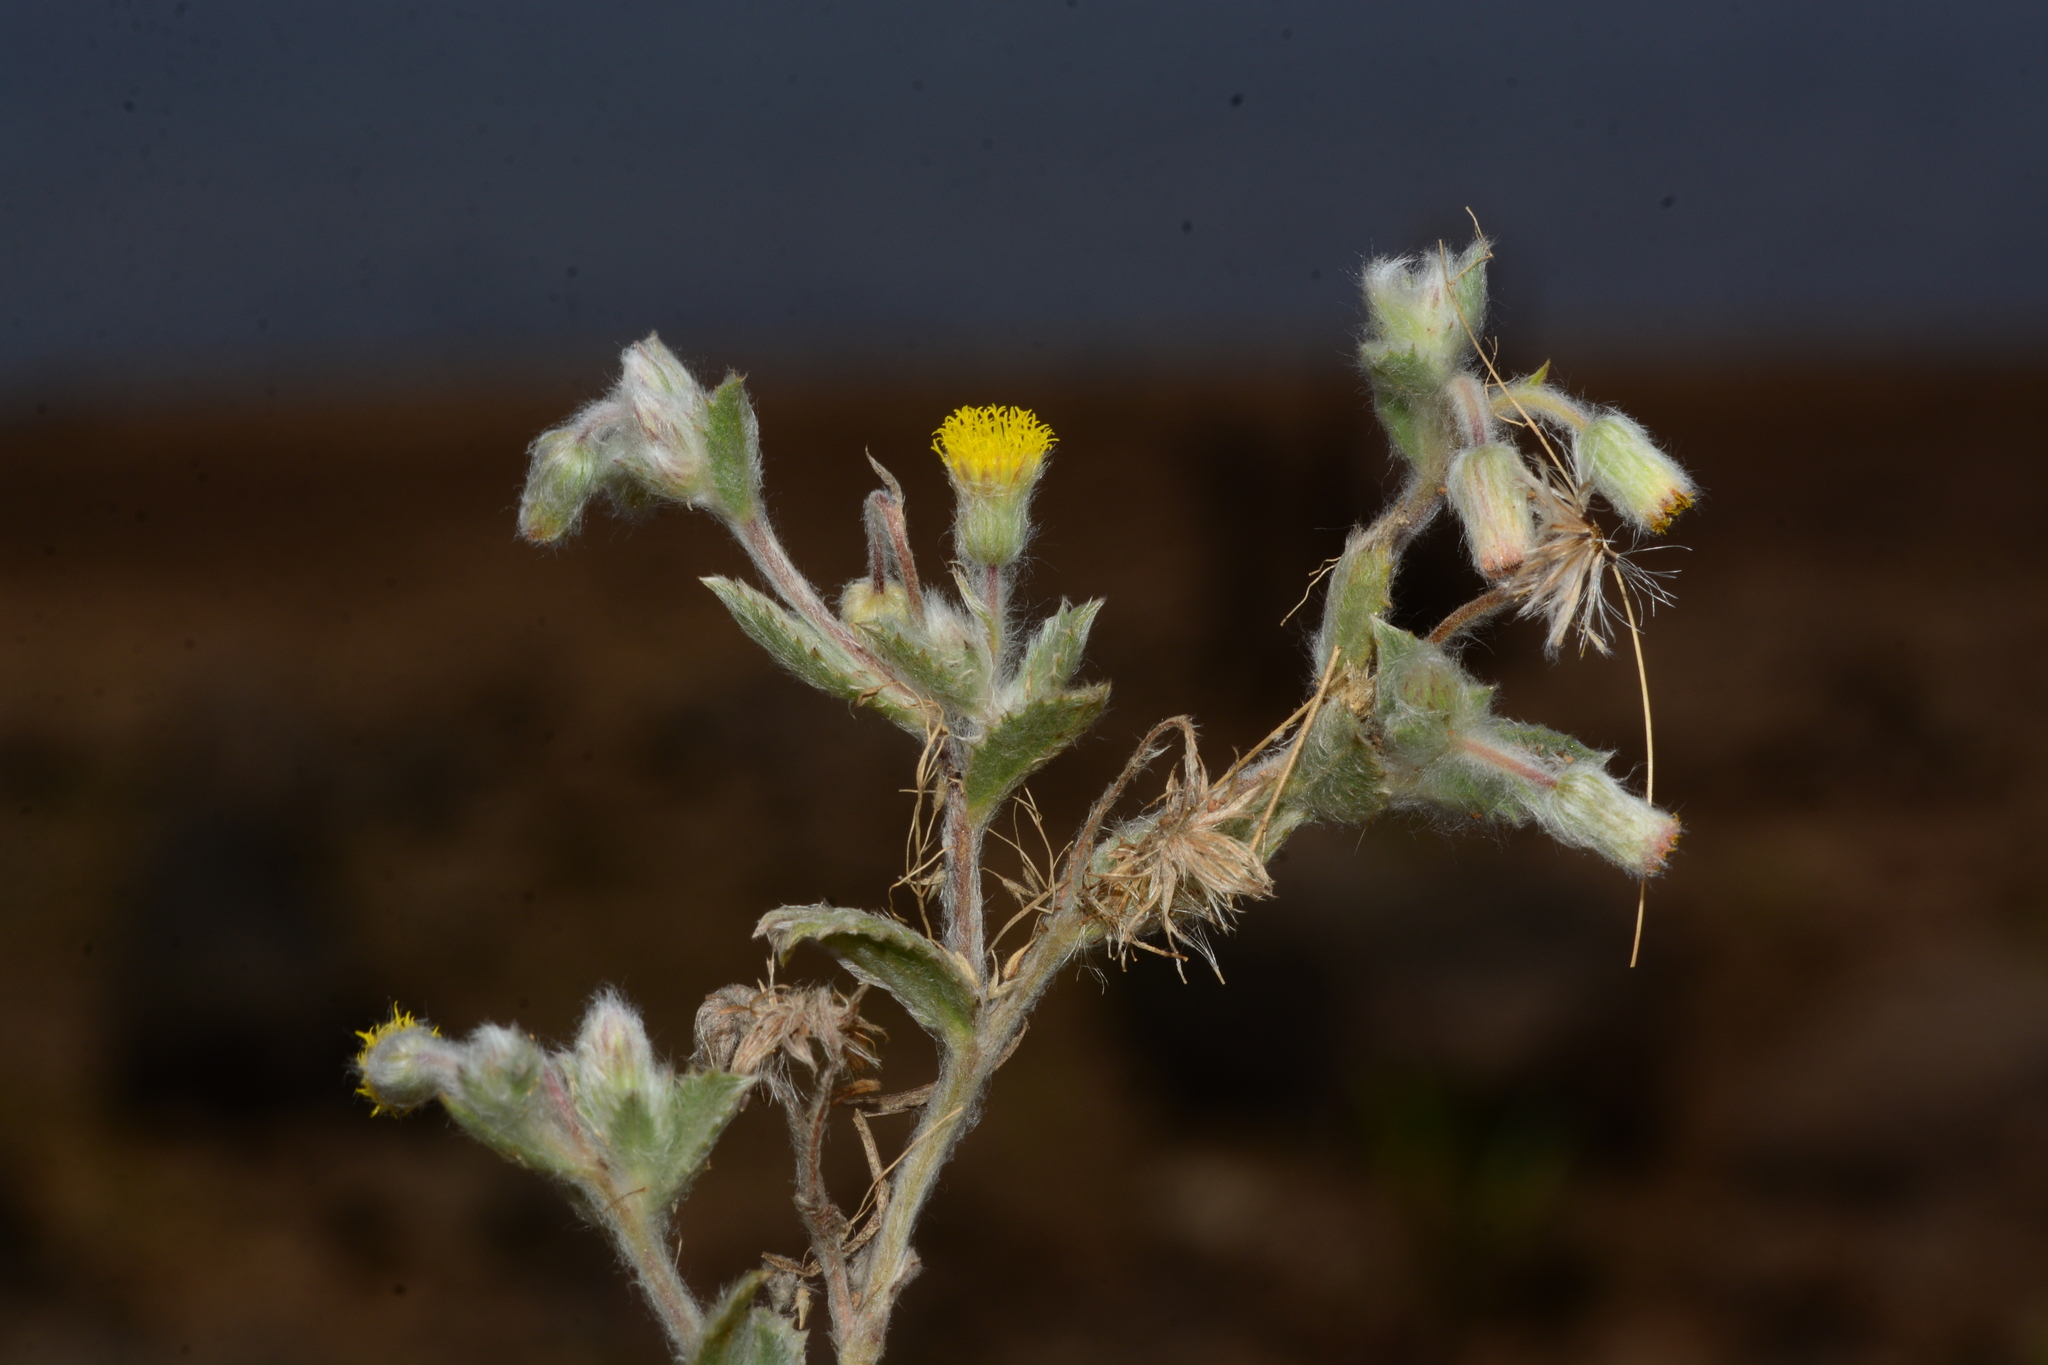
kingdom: Plantae
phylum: Tracheophyta
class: Magnoliopsida
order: Asterales
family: Asteraceae
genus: Blumea
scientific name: Blumea malcolmii
